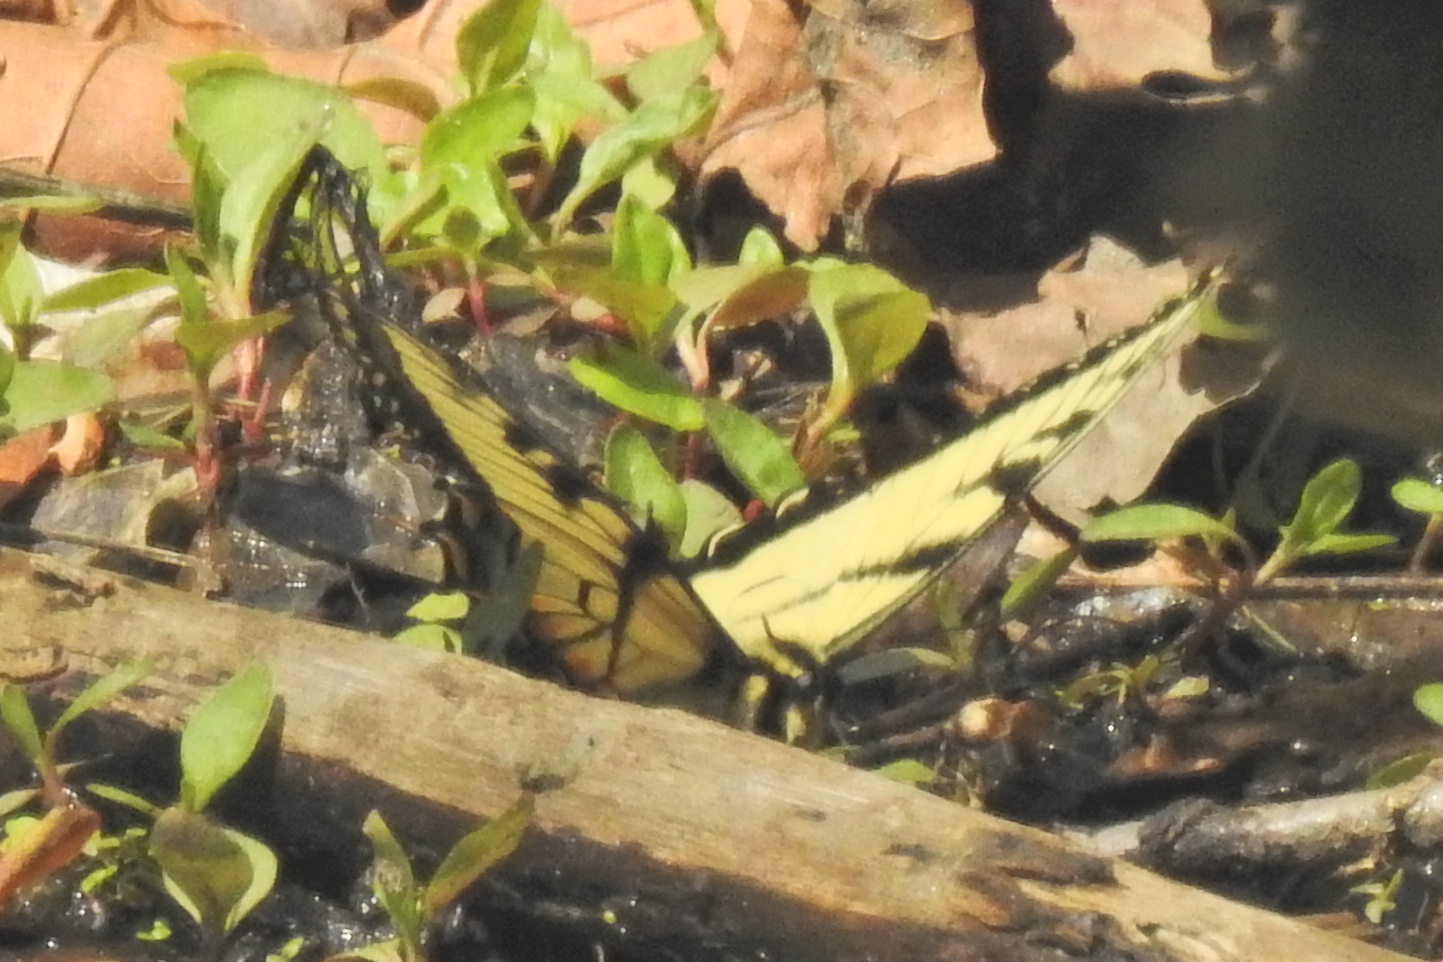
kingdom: Animalia
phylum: Arthropoda
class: Insecta
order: Lepidoptera
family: Papilionidae
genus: Papilio
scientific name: Papilio glaucus
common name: Tiger swallowtail
